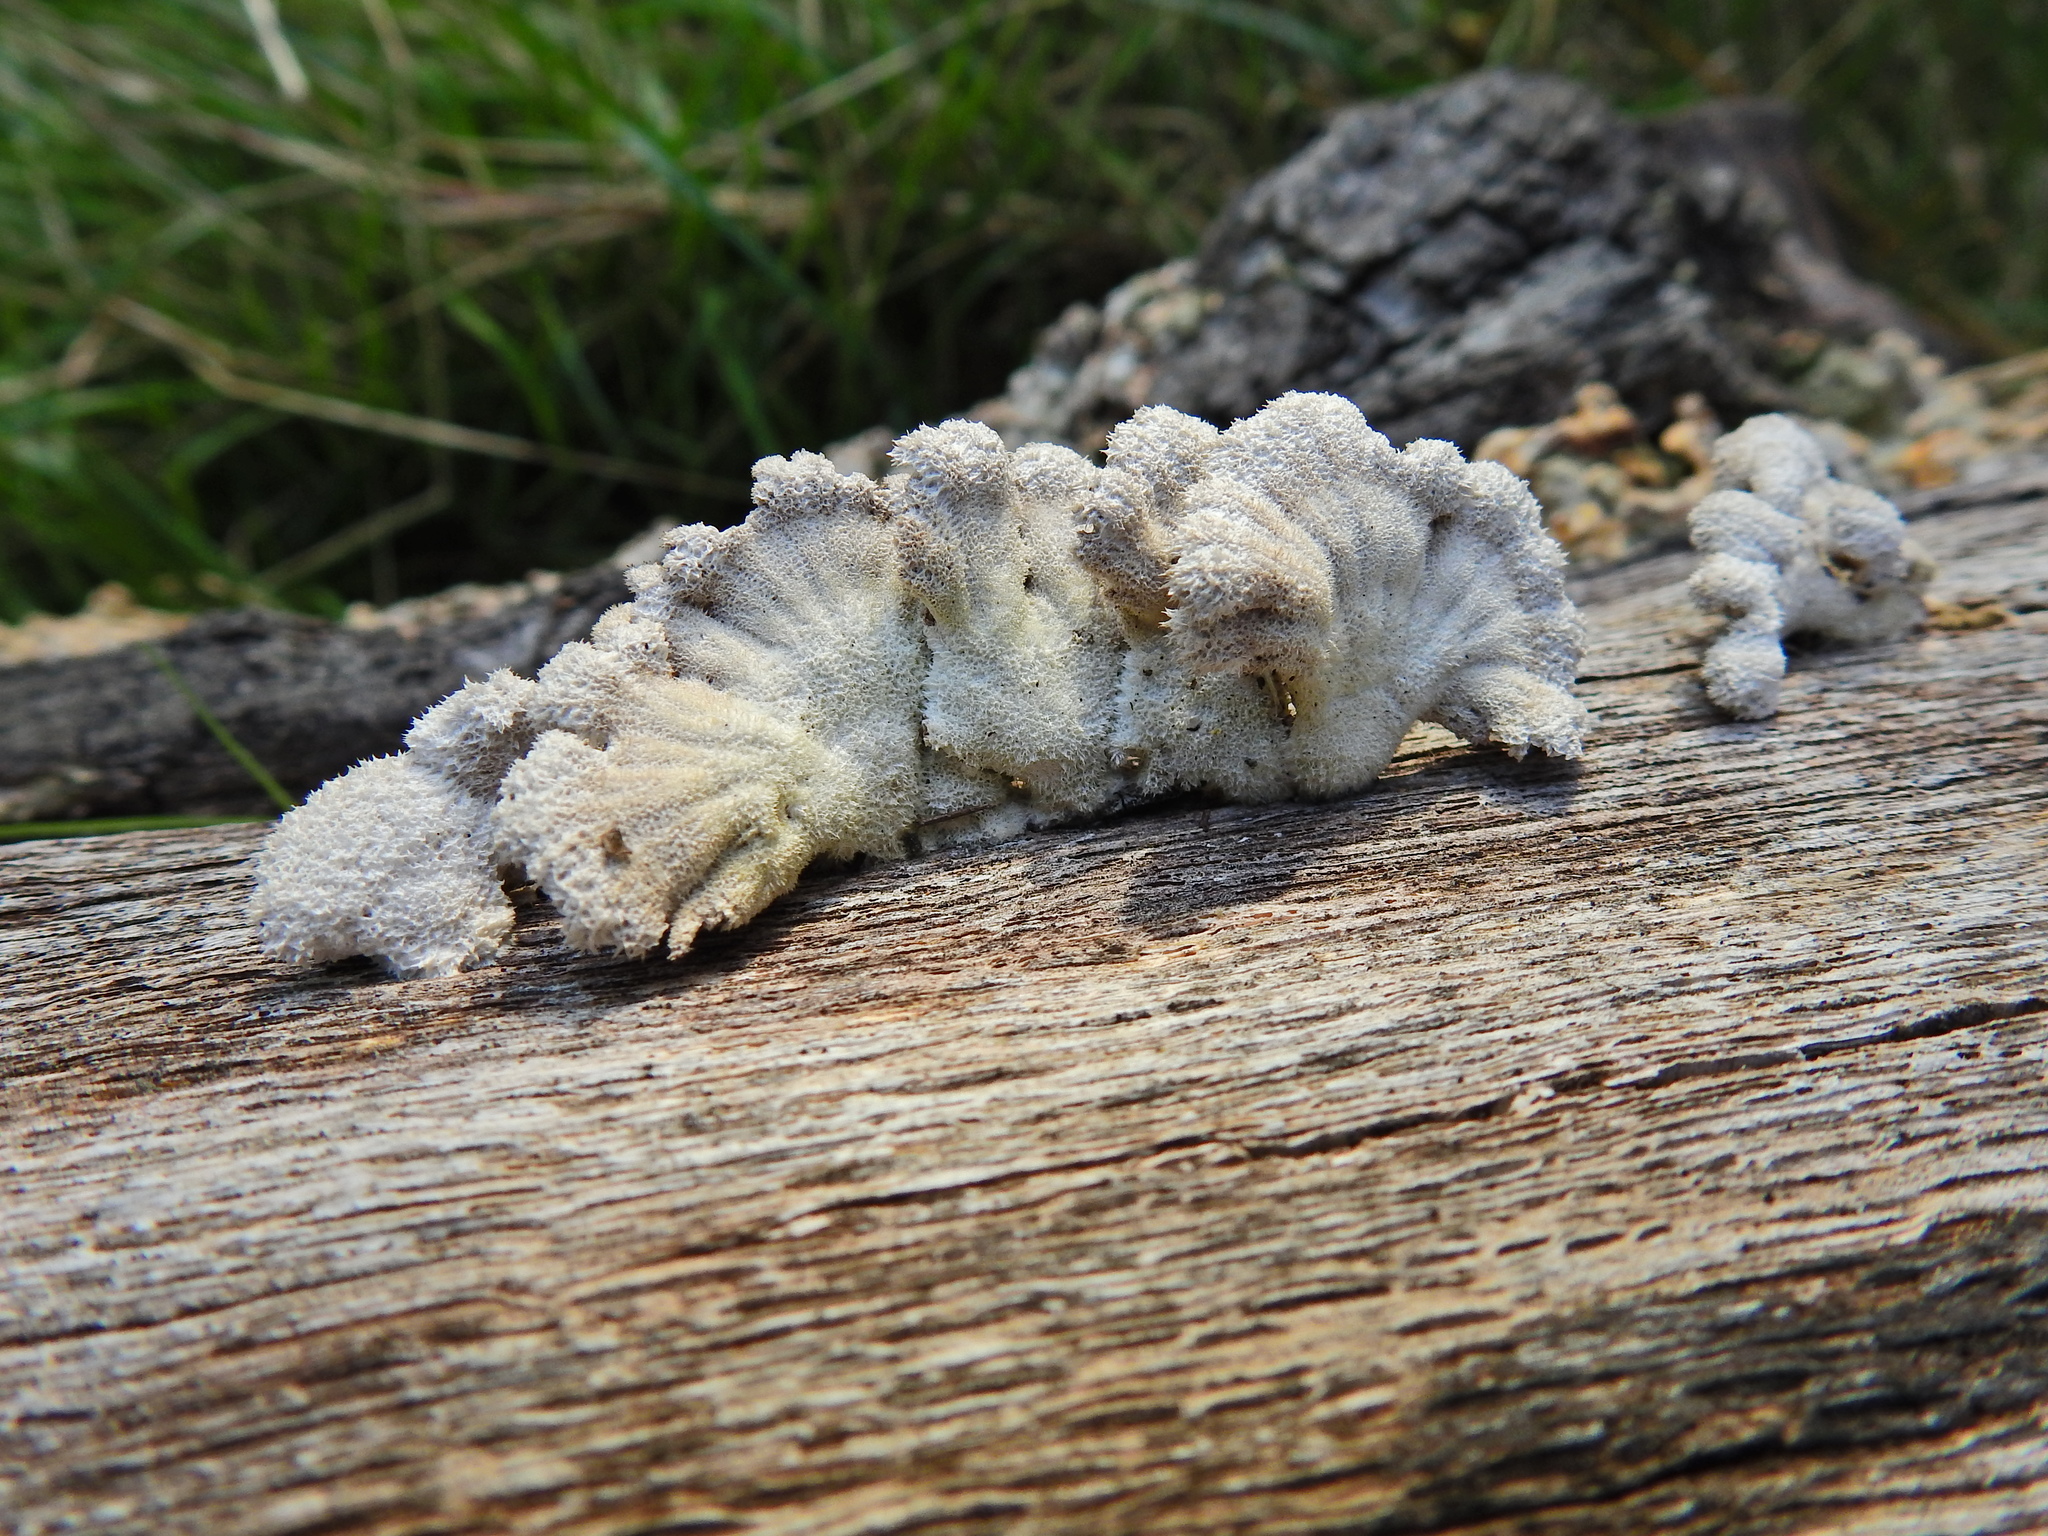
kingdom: Fungi
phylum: Basidiomycota
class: Agaricomycetes
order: Agaricales
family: Schizophyllaceae
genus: Schizophyllum
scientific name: Schizophyllum commune
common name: Common porecrust
